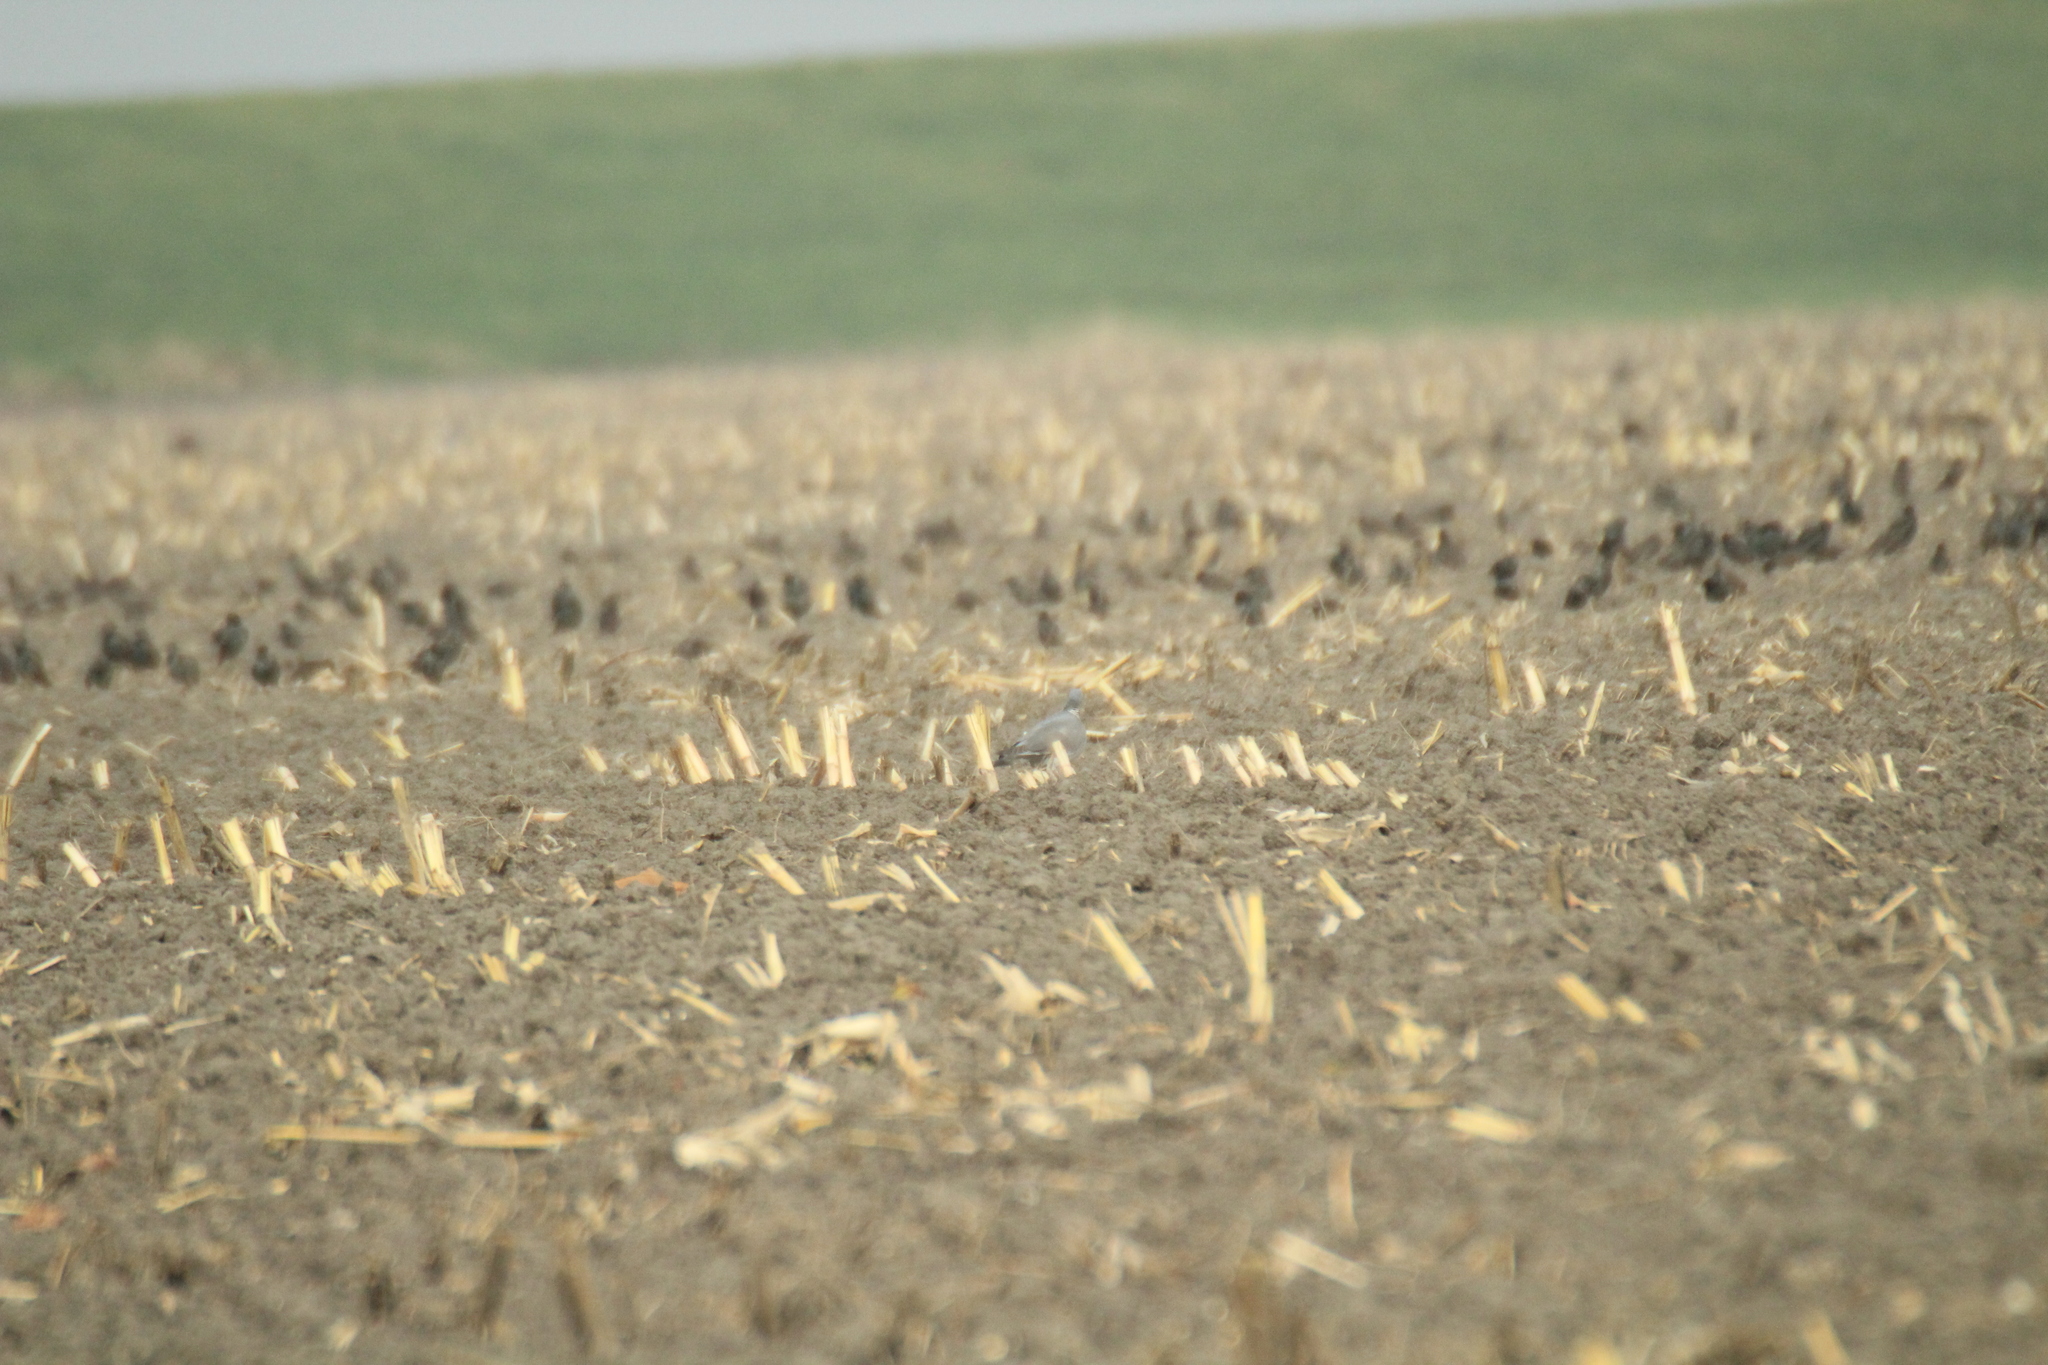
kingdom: Animalia
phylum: Chordata
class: Aves
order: Columbiformes
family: Columbidae
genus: Columba
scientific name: Columba palumbus
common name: Common wood pigeon
